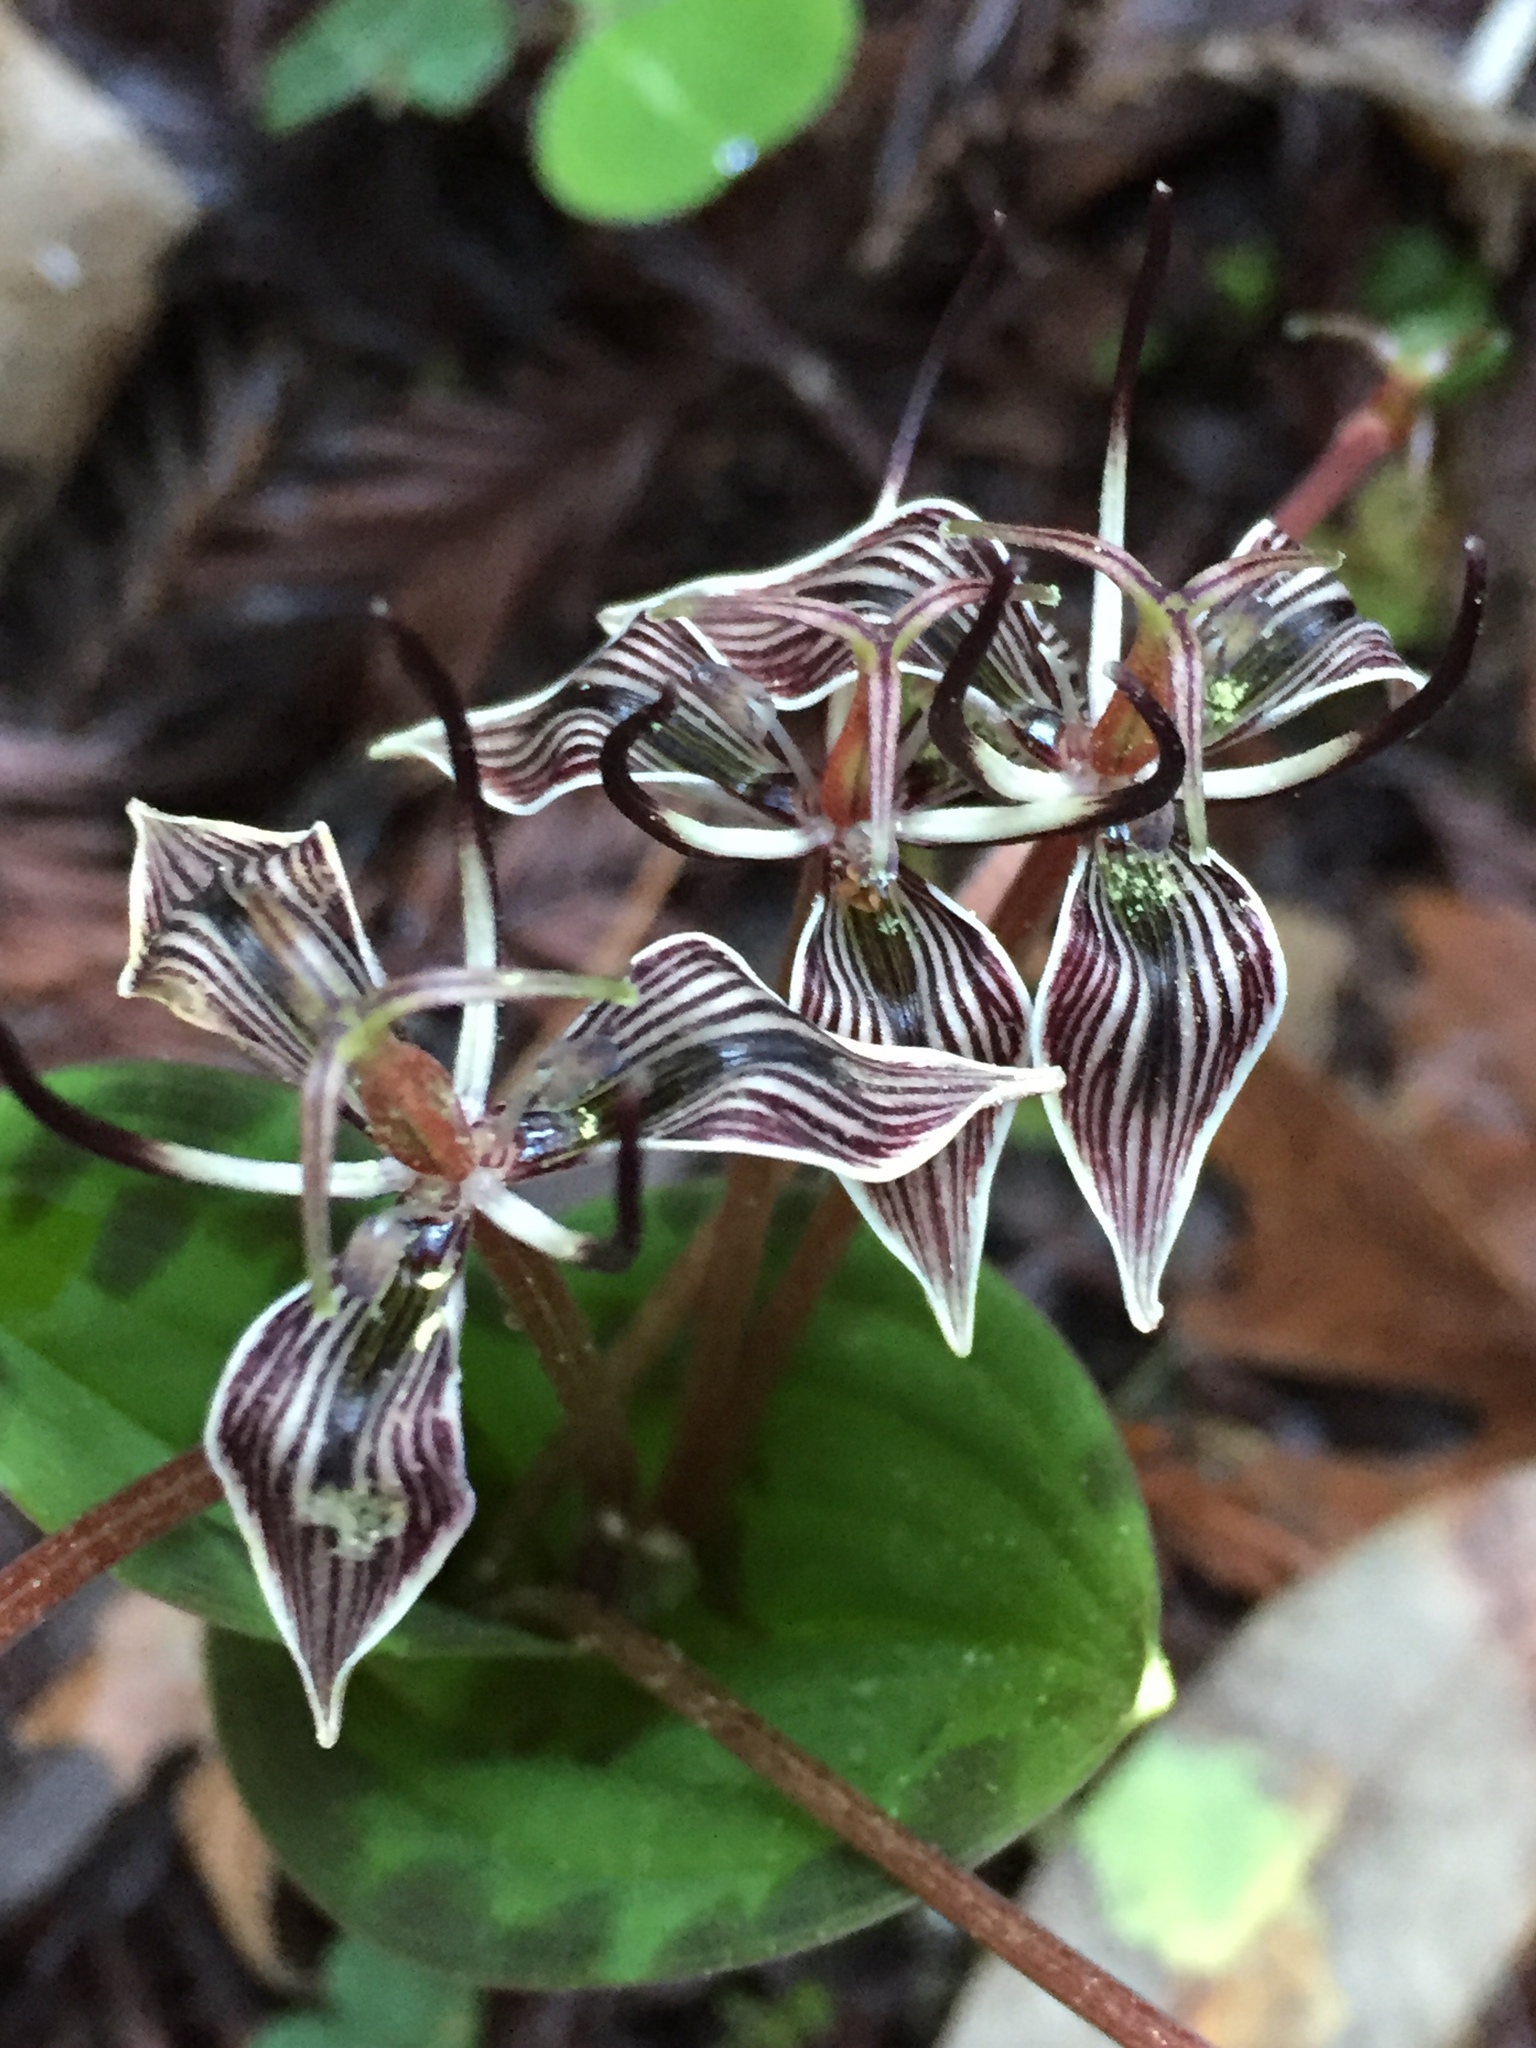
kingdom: Plantae
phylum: Tracheophyta
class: Liliopsida
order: Liliales
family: Liliaceae
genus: Scoliopus
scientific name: Scoliopus bigelovii
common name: Foetid adder's-tongue
